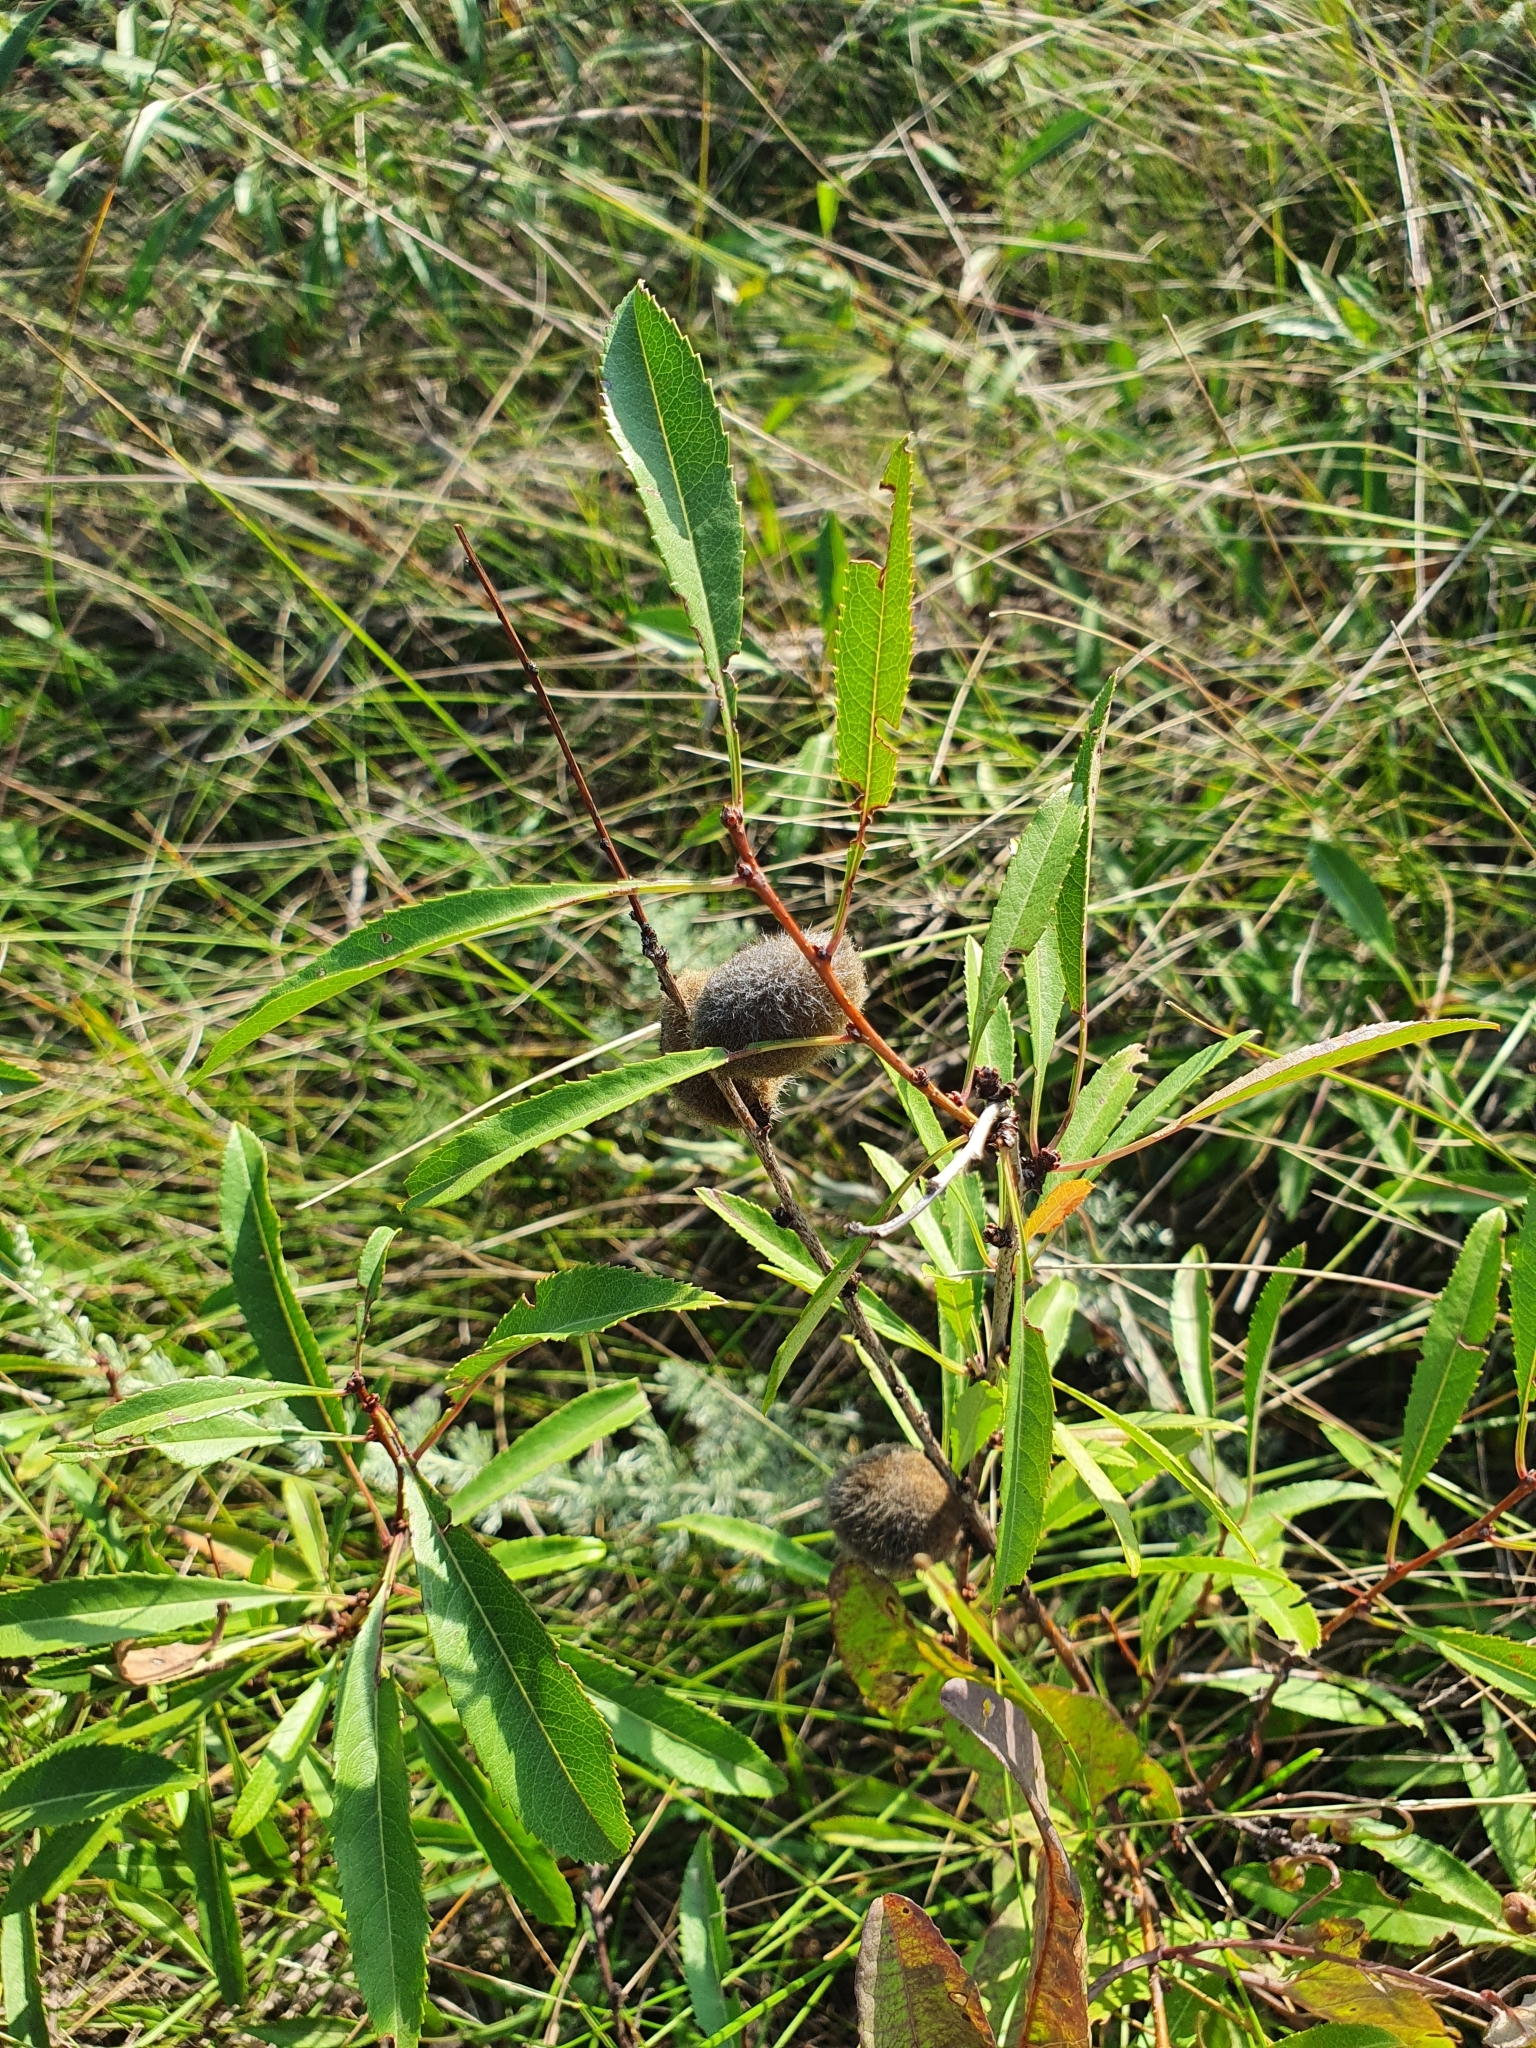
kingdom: Plantae
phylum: Tracheophyta
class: Magnoliopsida
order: Rosales
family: Rosaceae
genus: Prunus
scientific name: Prunus tenella
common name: Dwarf russian almond
